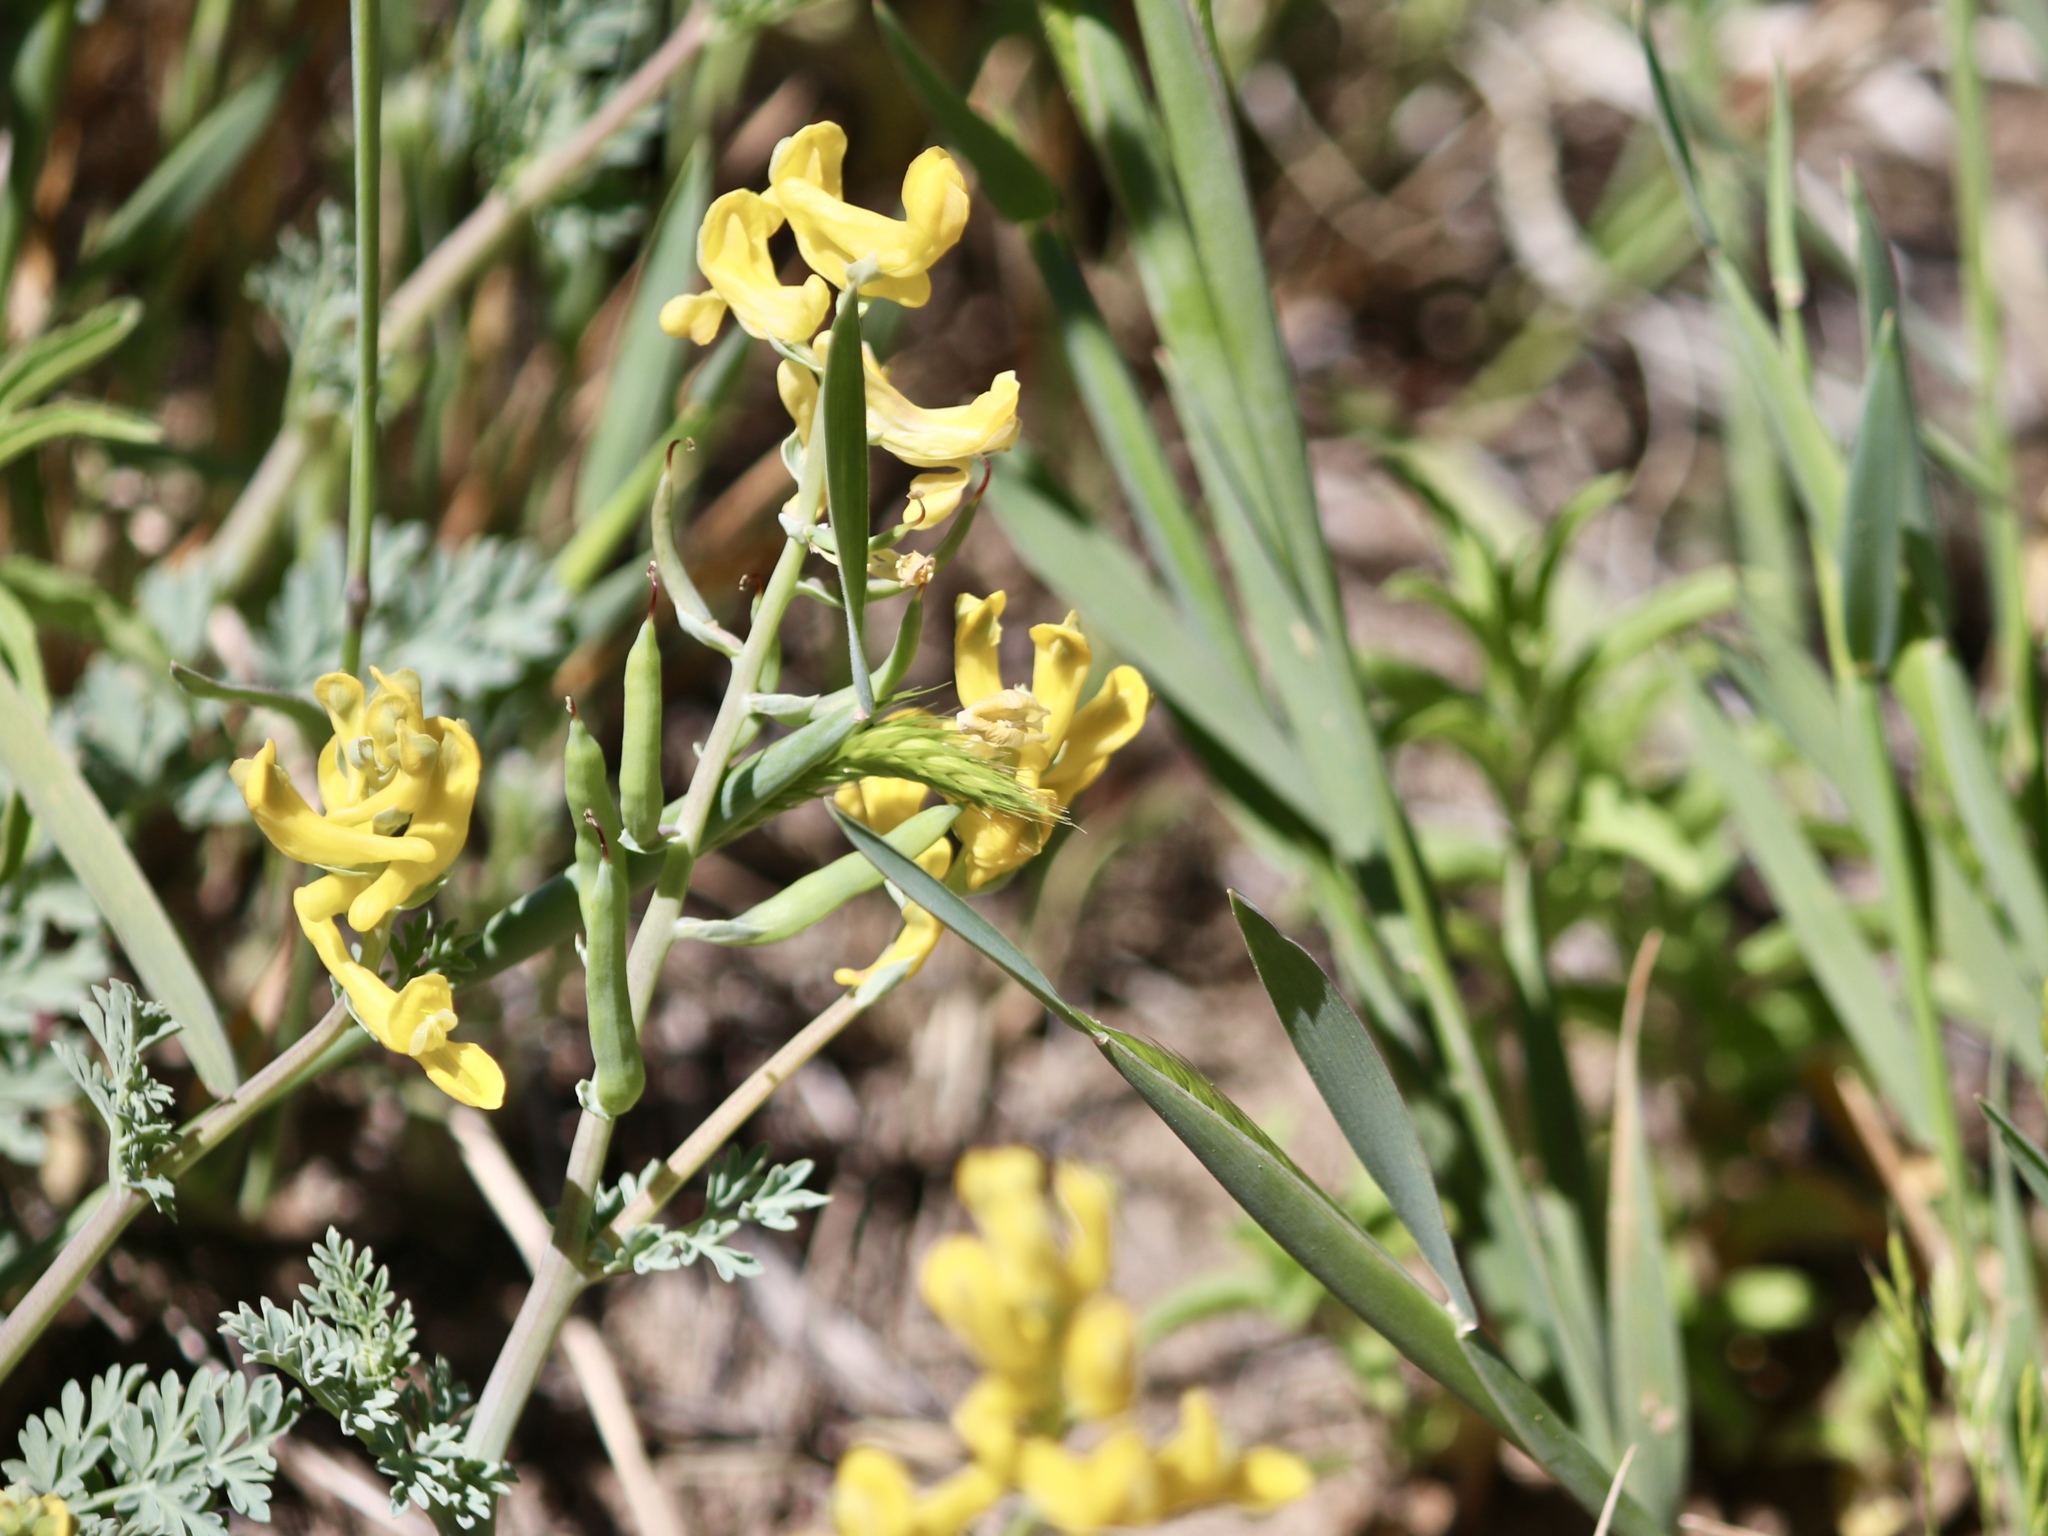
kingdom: Plantae
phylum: Tracheophyta
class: Magnoliopsida
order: Ranunculales
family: Papaveraceae
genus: Corydalis
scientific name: Corydalis aurea
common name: Golden corydalis
